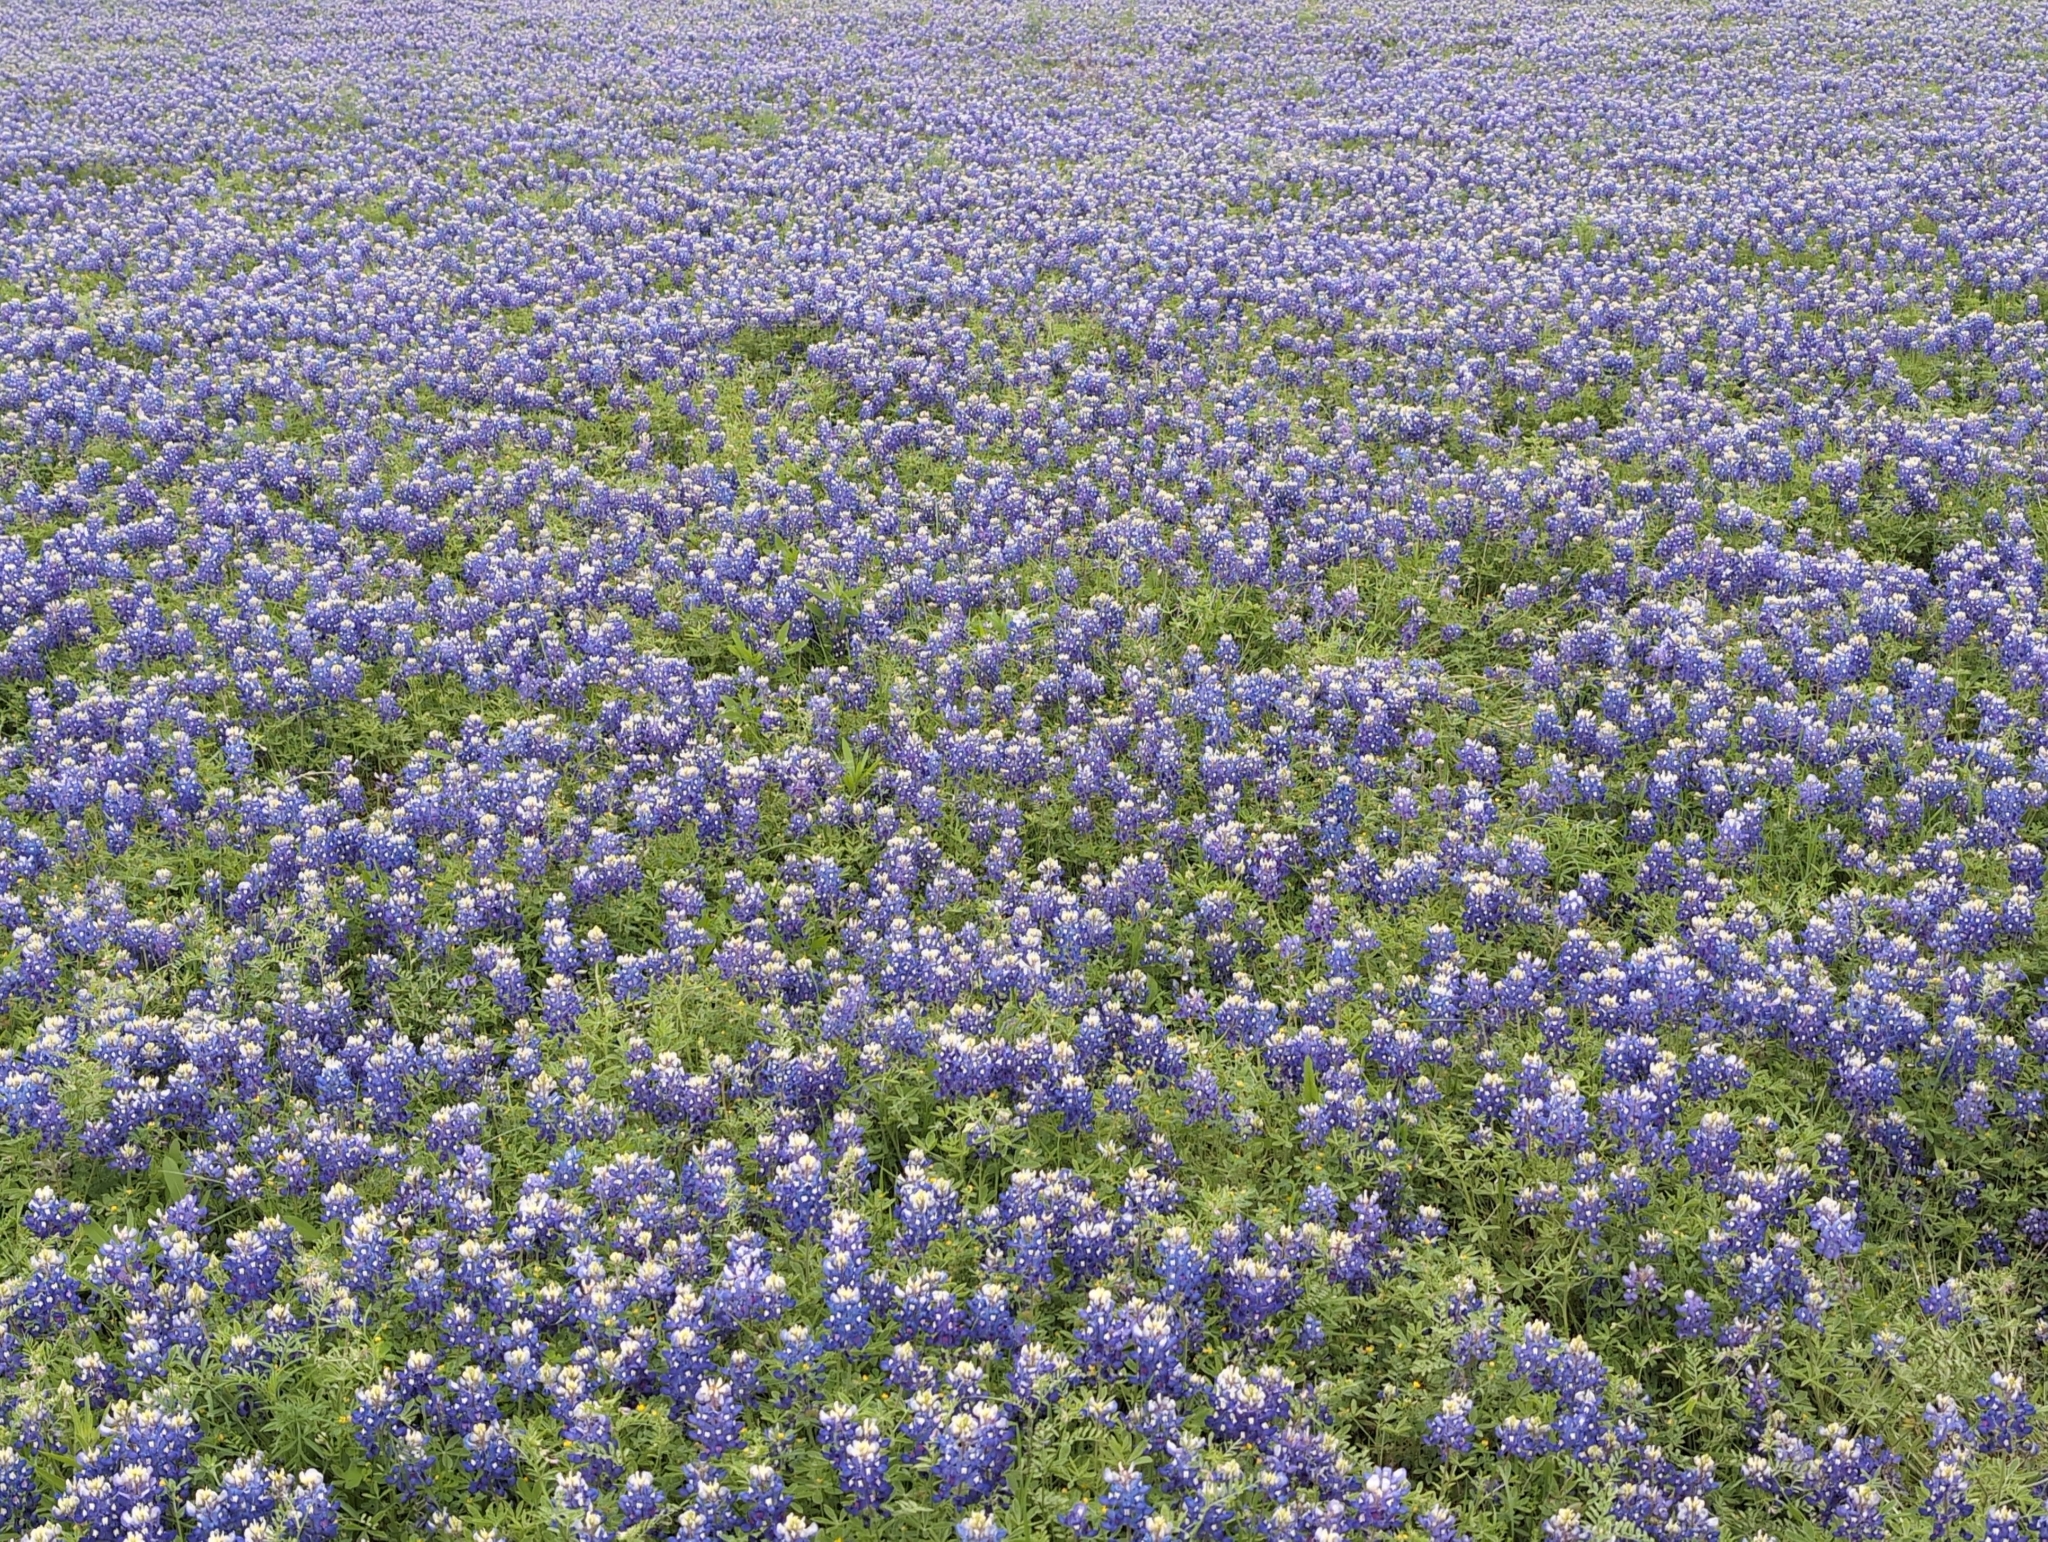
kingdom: Plantae
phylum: Tracheophyta
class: Magnoliopsida
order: Fabales
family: Fabaceae
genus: Lupinus
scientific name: Lupinus texensis
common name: Texas bluebonnet
